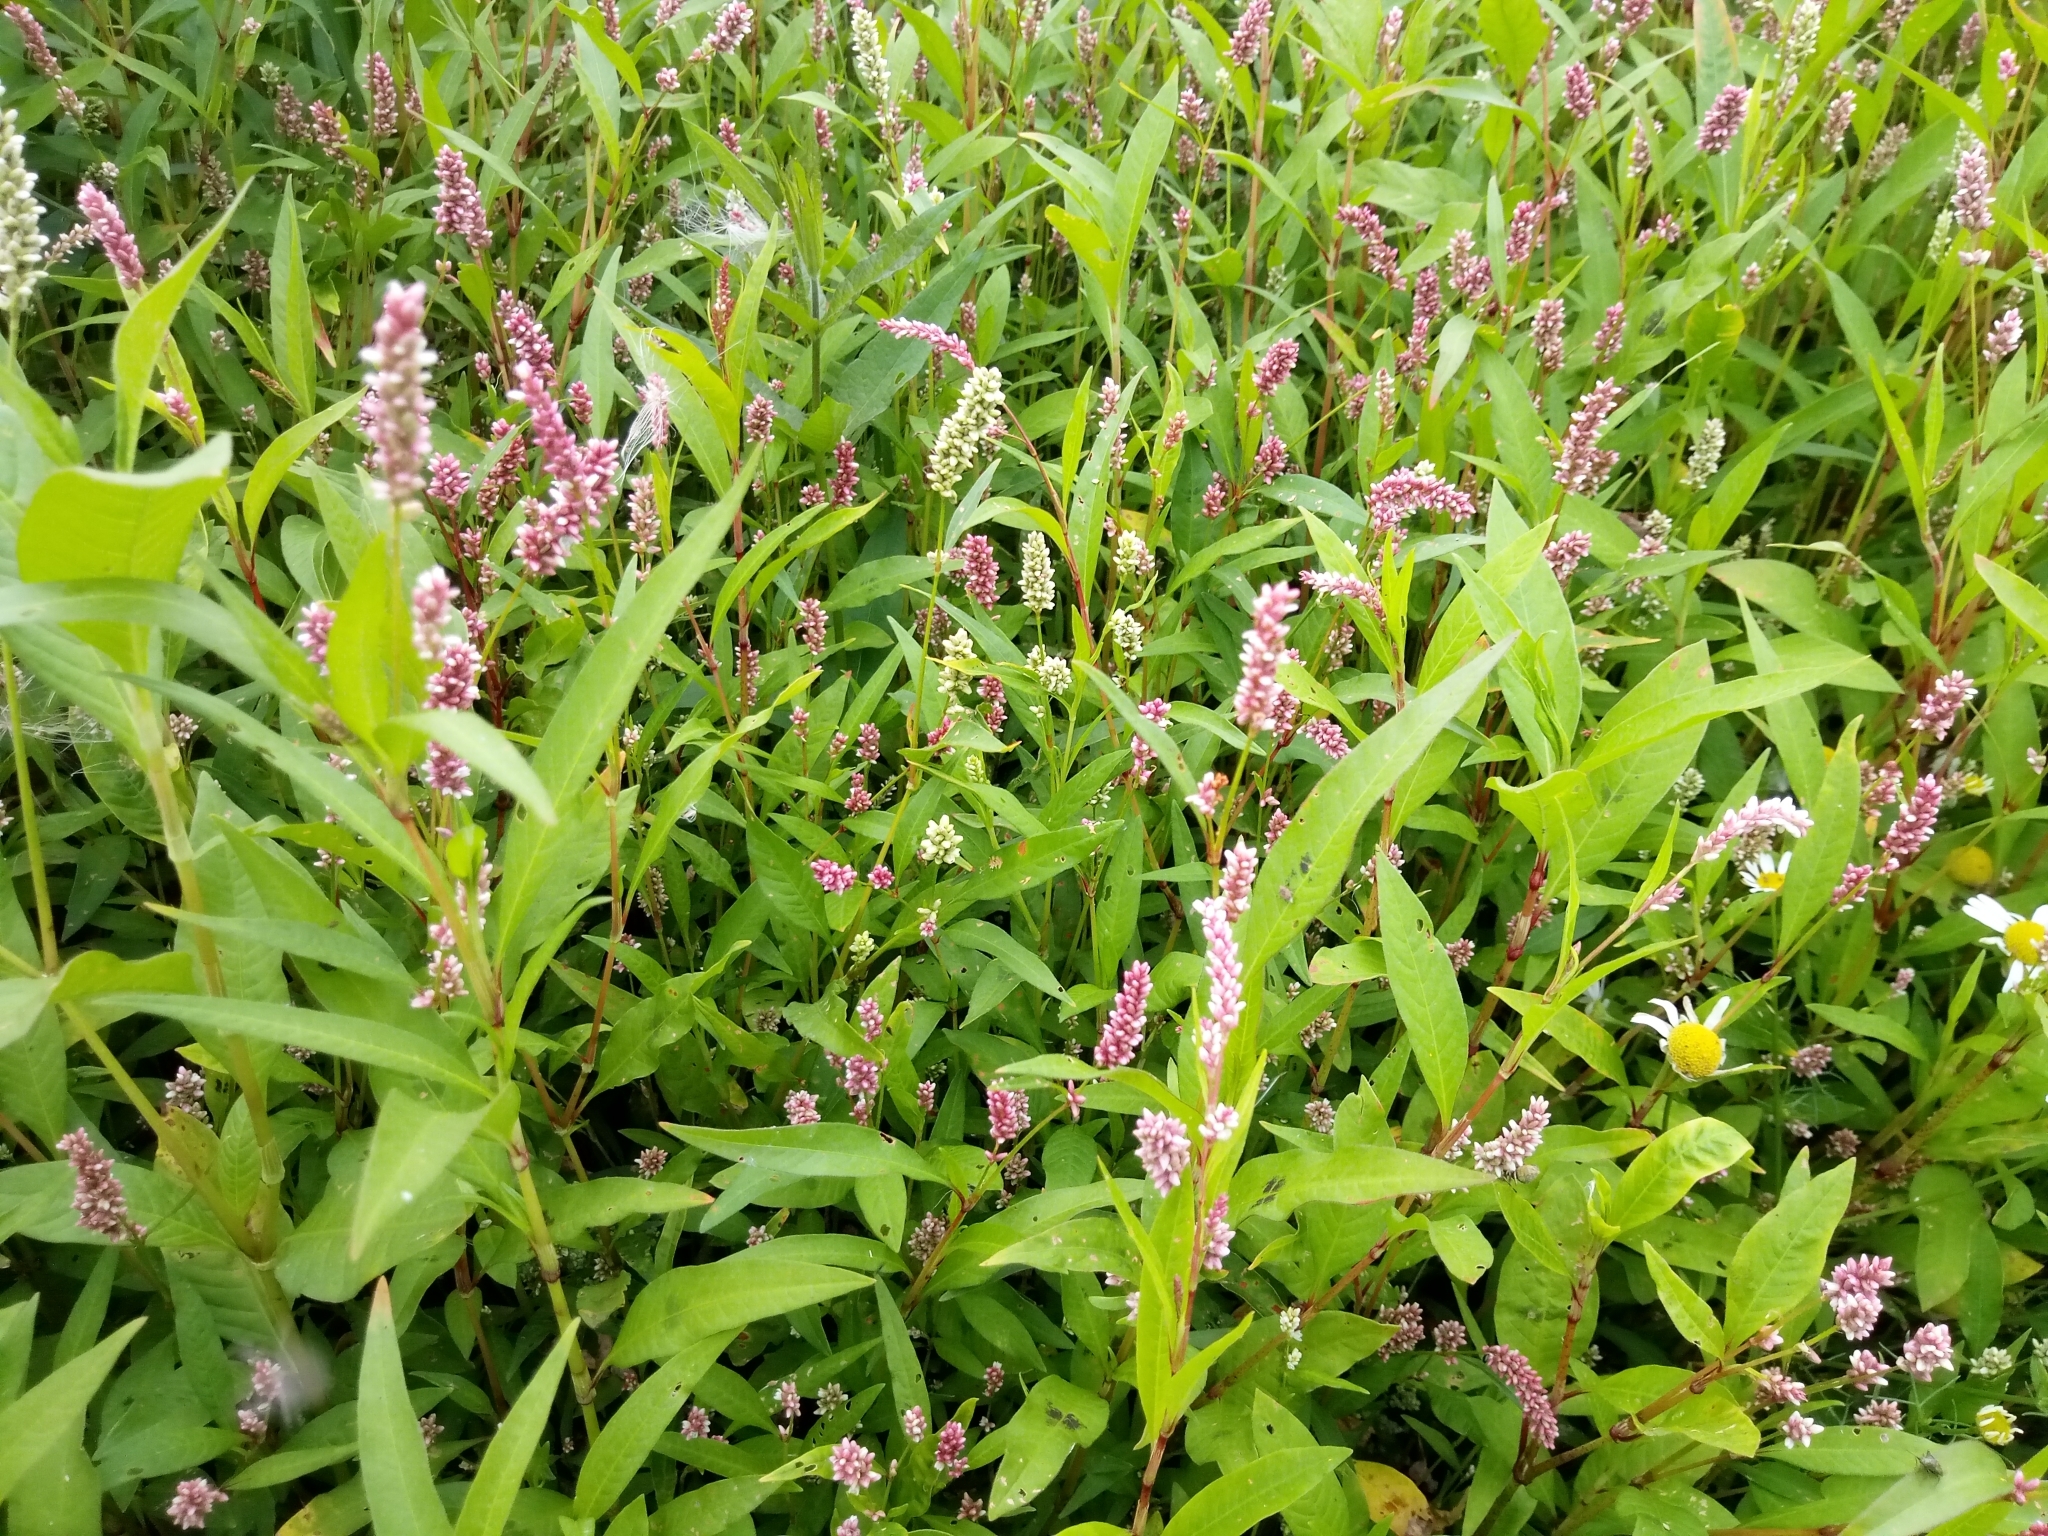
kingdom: Plantae
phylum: Tracheophyta
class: Magnoliopsida
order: Caryophyllales
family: Polygonaceae
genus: Persicaria
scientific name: Persicaria lapathifolia
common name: Curlytop knotweed
